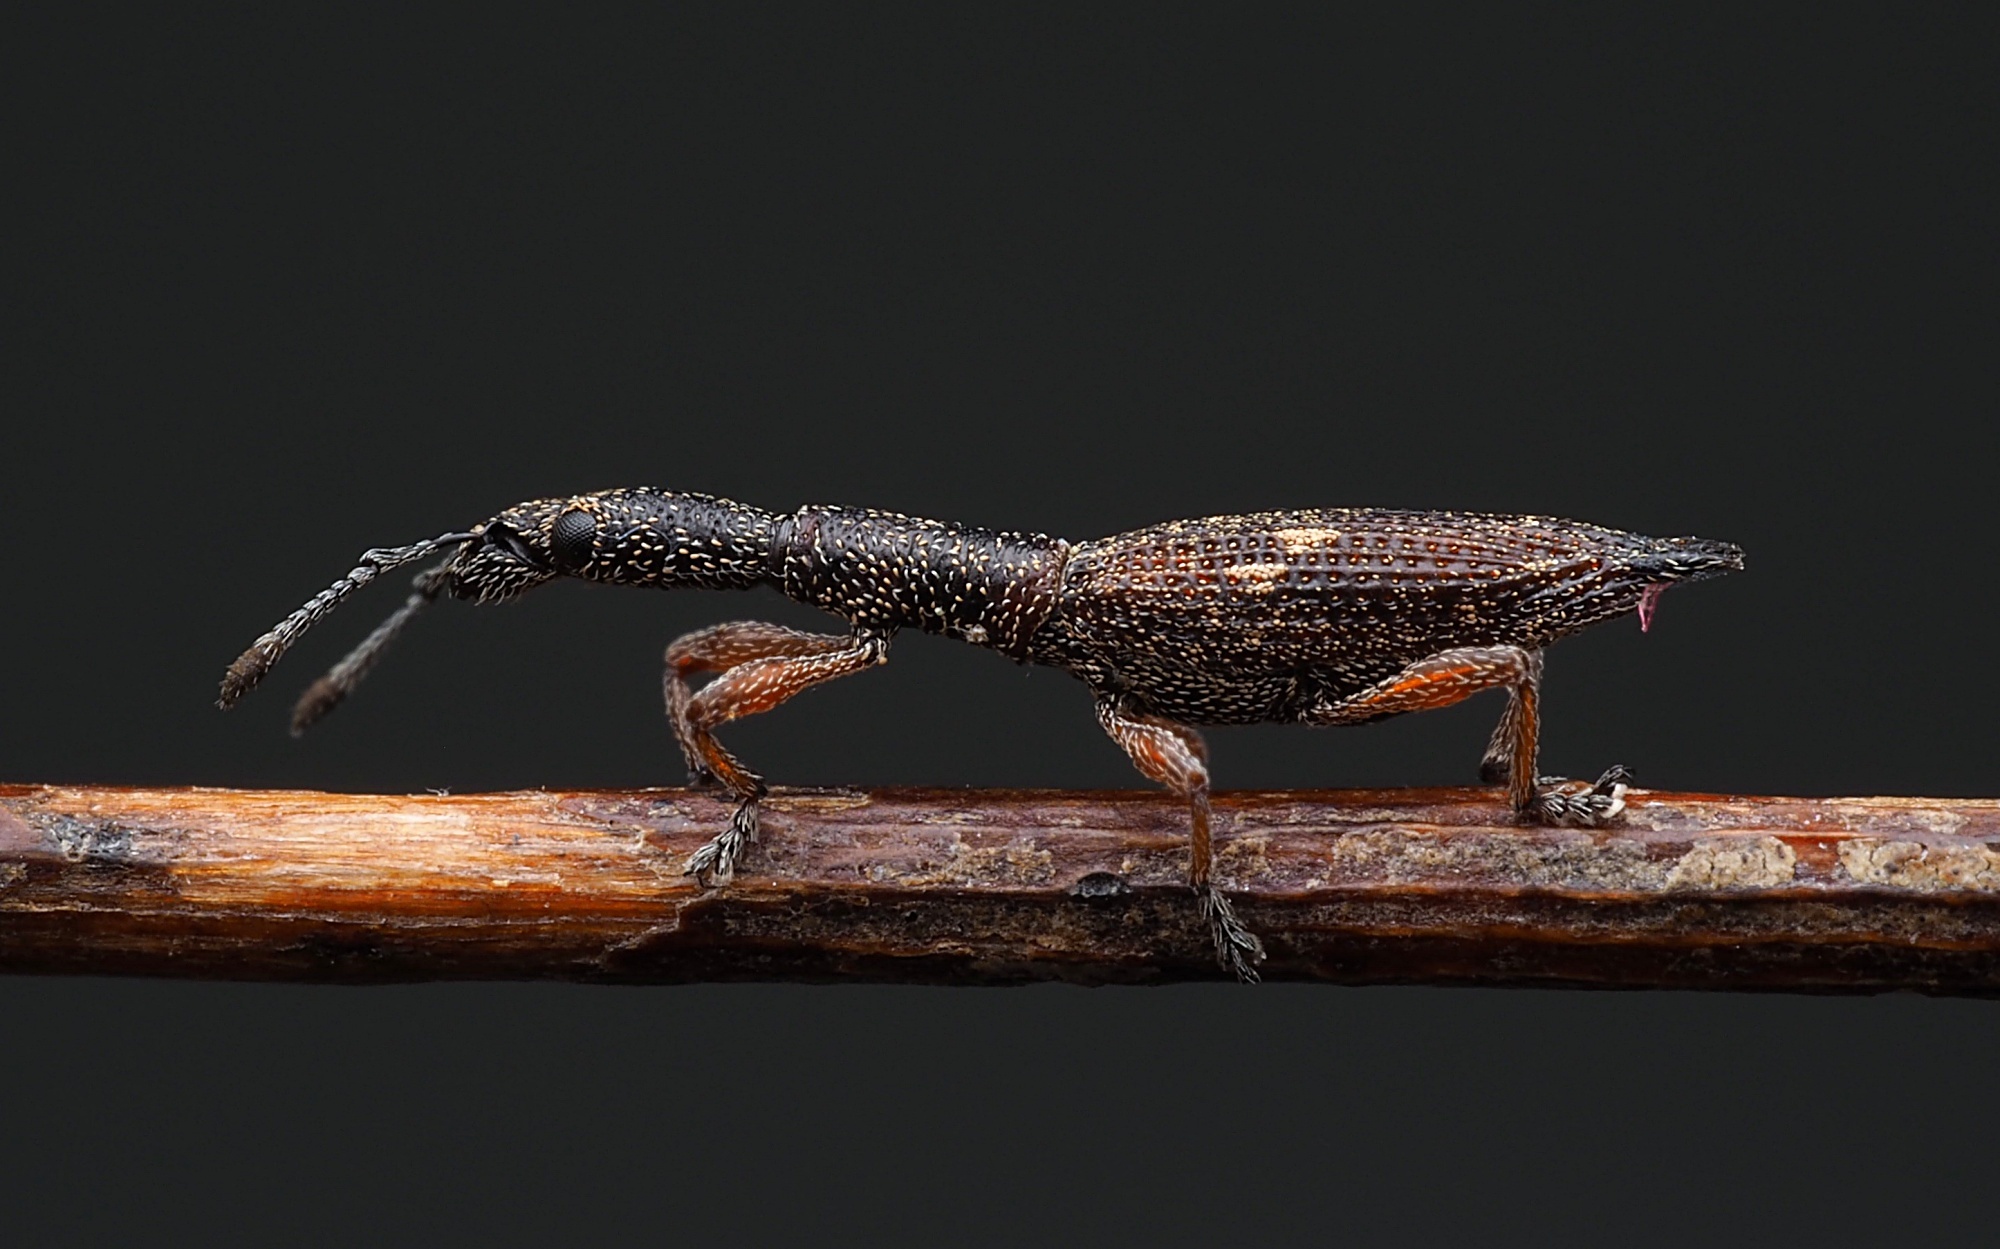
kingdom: Animalia
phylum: Arthropoda
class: Insecta
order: Coleoptera
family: Curculionidae
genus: Rhadinosomus
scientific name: Rhadinosomus acuminatus
